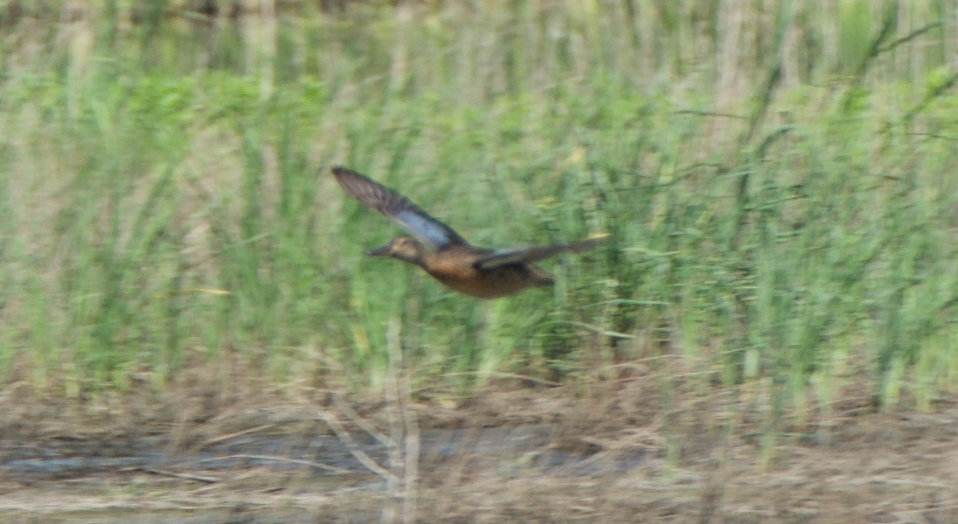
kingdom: Animalia
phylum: Chordata
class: Aves
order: Anseriformes
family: Anatidae
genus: Spatula
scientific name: Spatula discors
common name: Blue-winged teal
